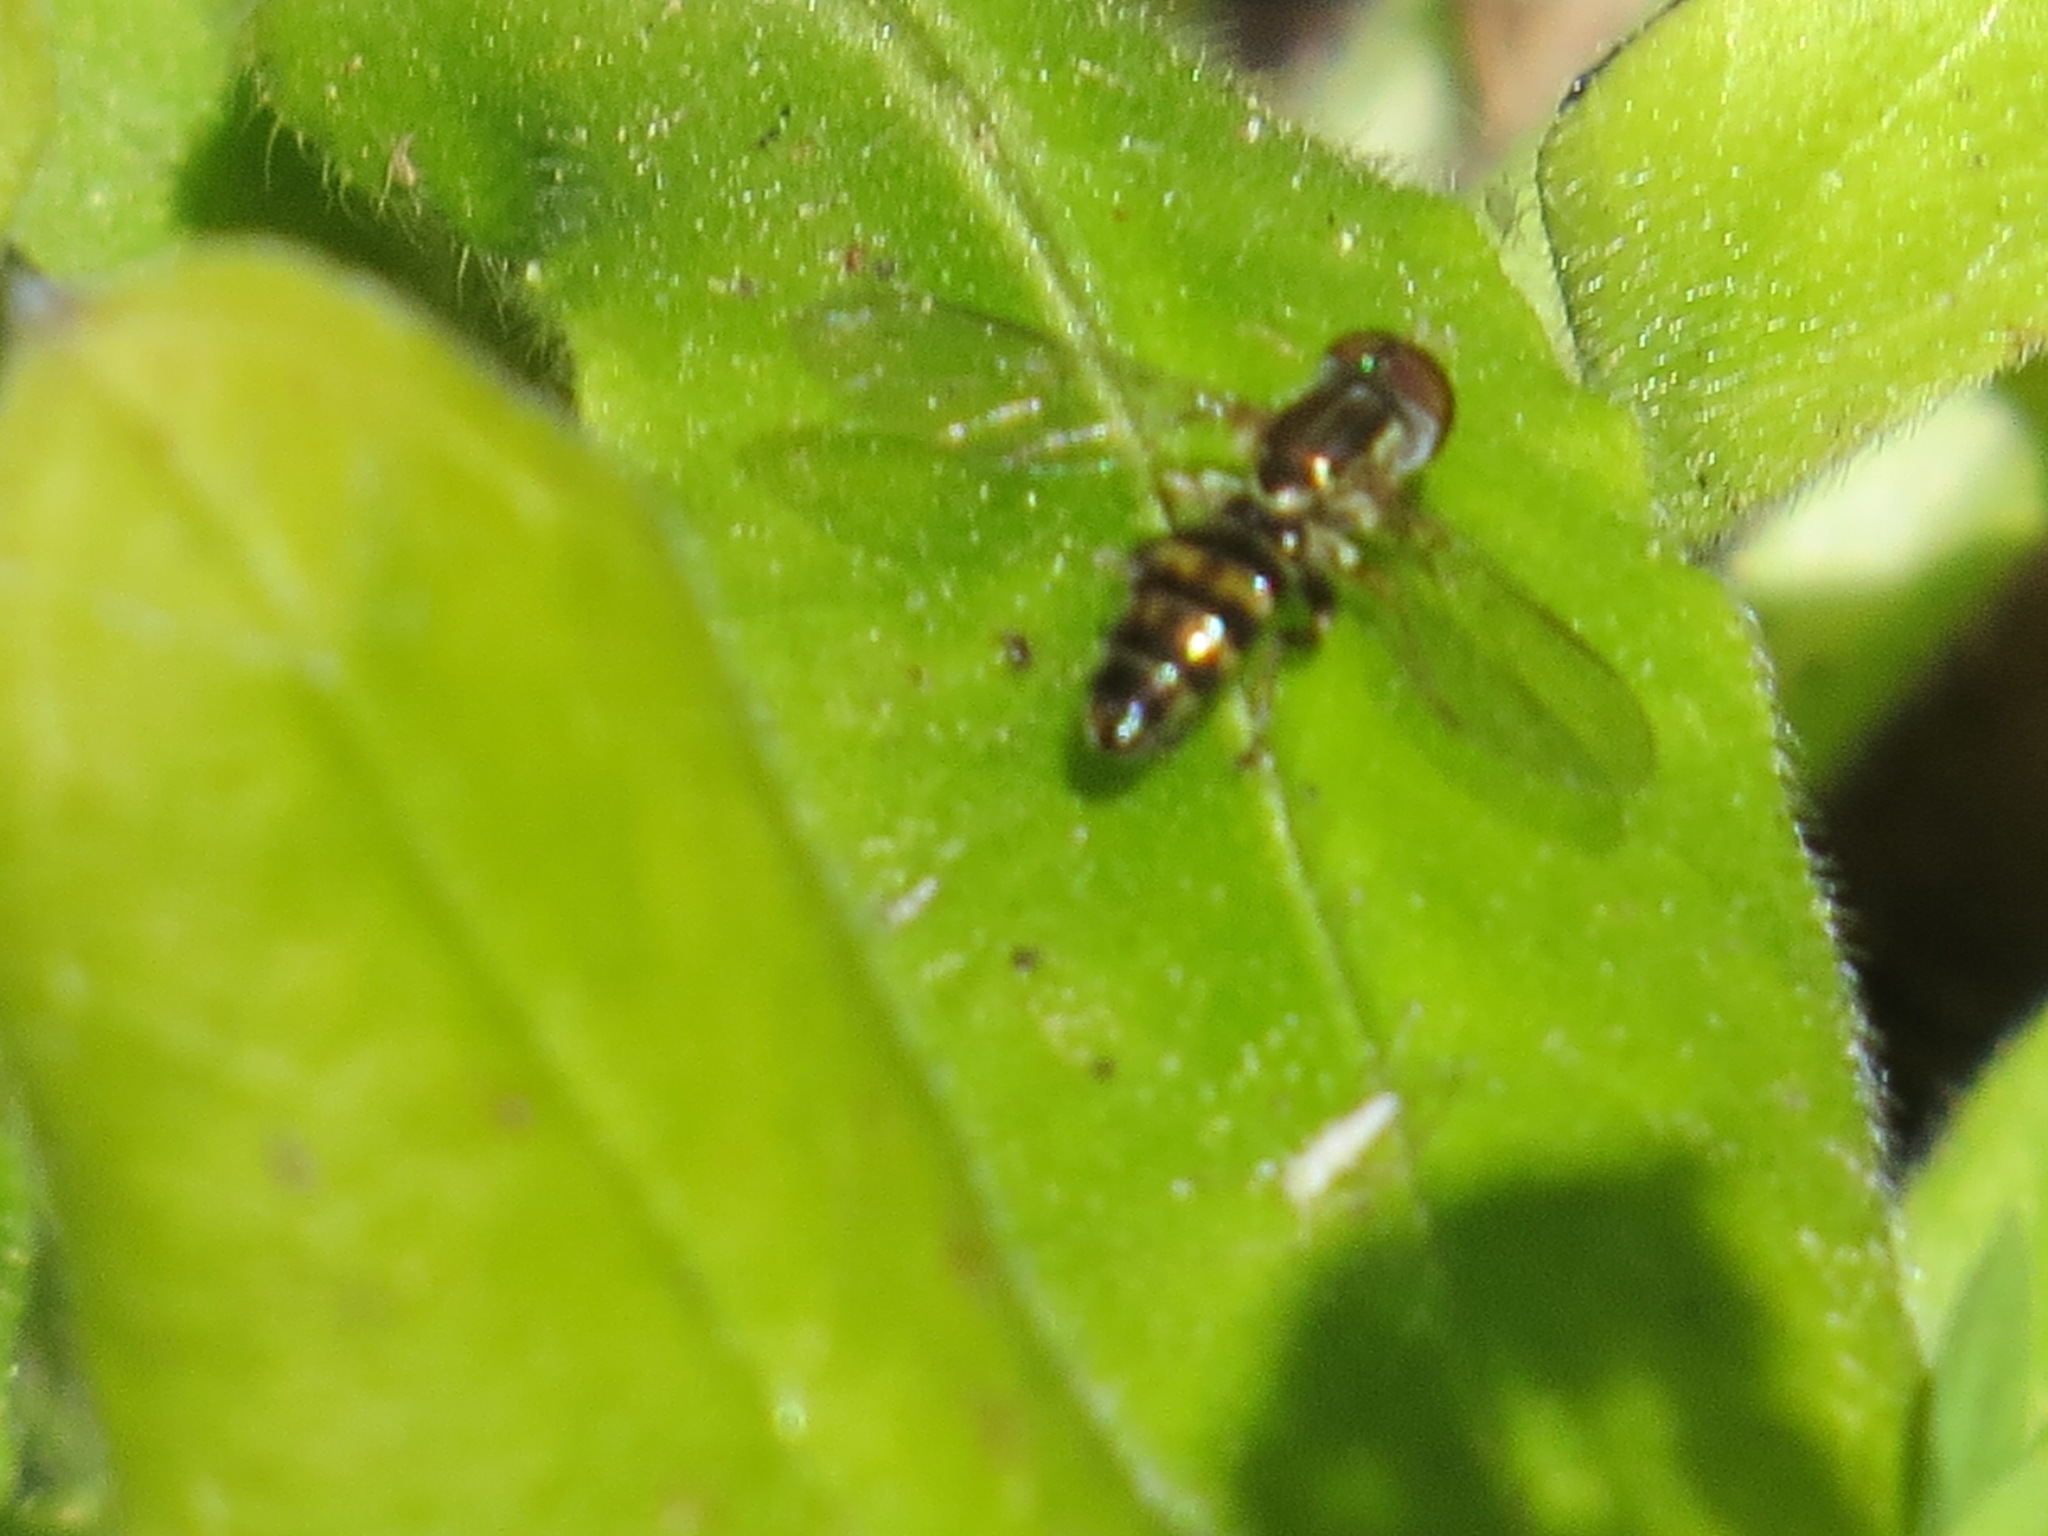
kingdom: Animalia
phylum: Arthropoda
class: Insecta
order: Diptera
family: Syrphidae
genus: Toxomerus
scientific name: Toxomerus occidentalis
